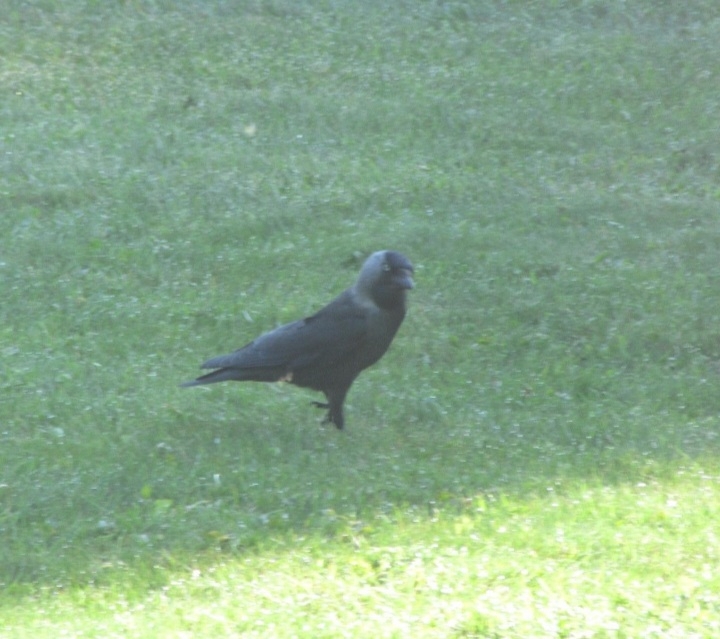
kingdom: Animalia
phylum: Chordata
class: Aves
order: Passeriformes
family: Corvidae
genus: Coloeus
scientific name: Coloeus monedula
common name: Western jackdaw
